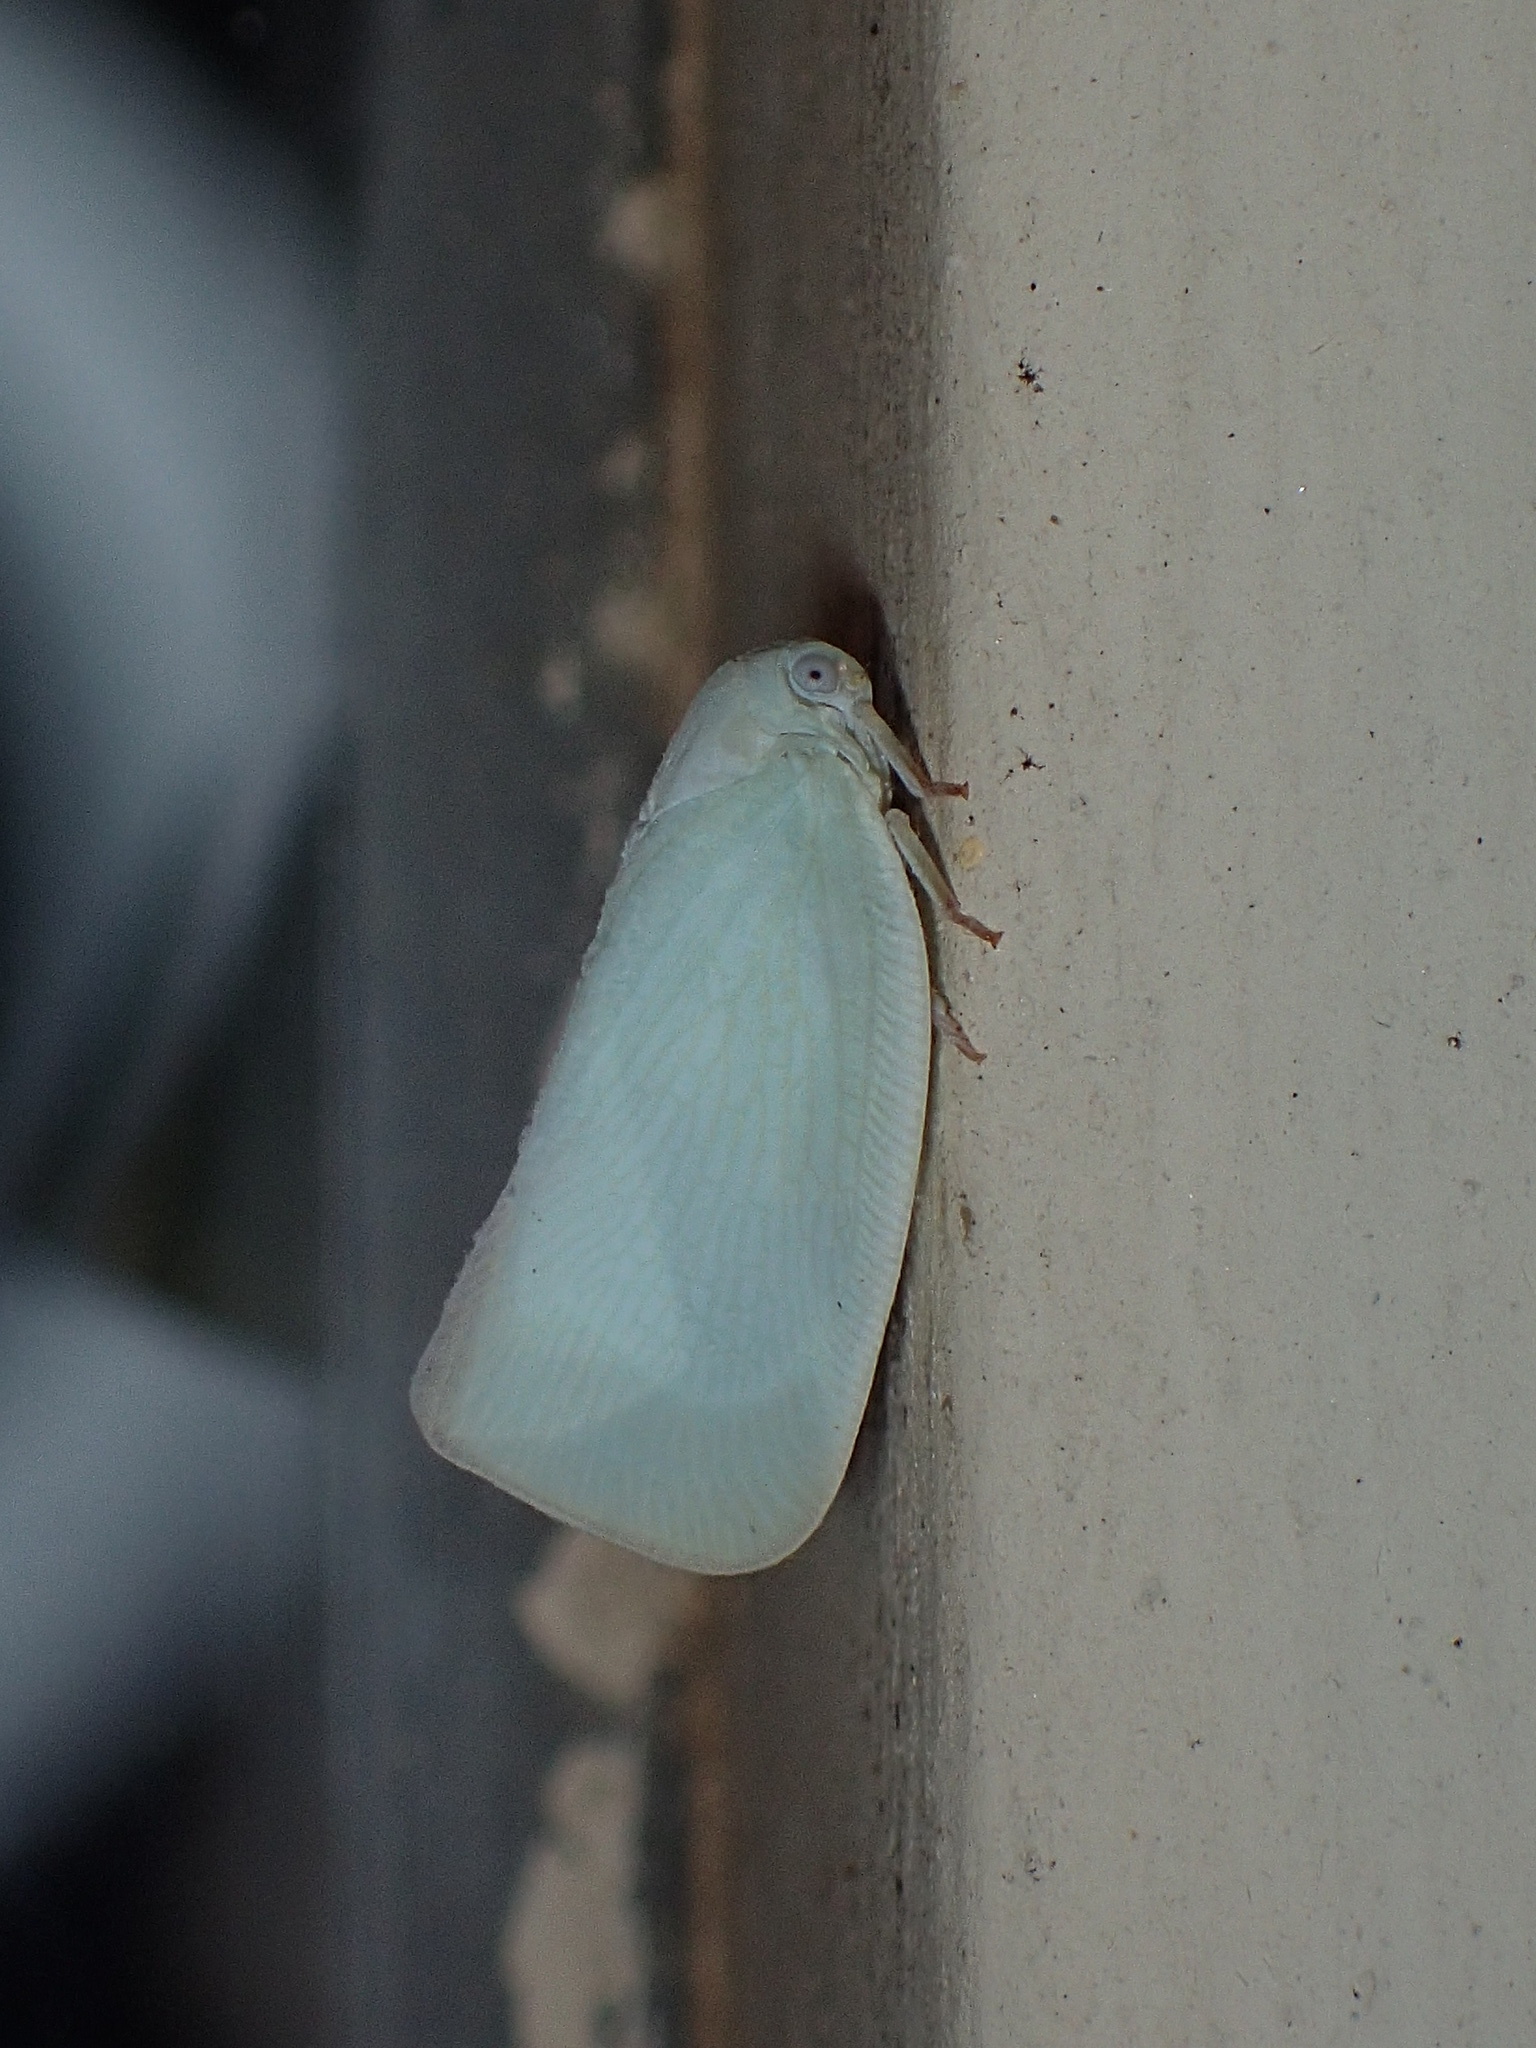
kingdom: Animalia
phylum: Arthropoda
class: Insecta
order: Hemiptera
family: Flatidae
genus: Flatormenis
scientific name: Flatormenis proxima
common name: Northern flatid planthopper
